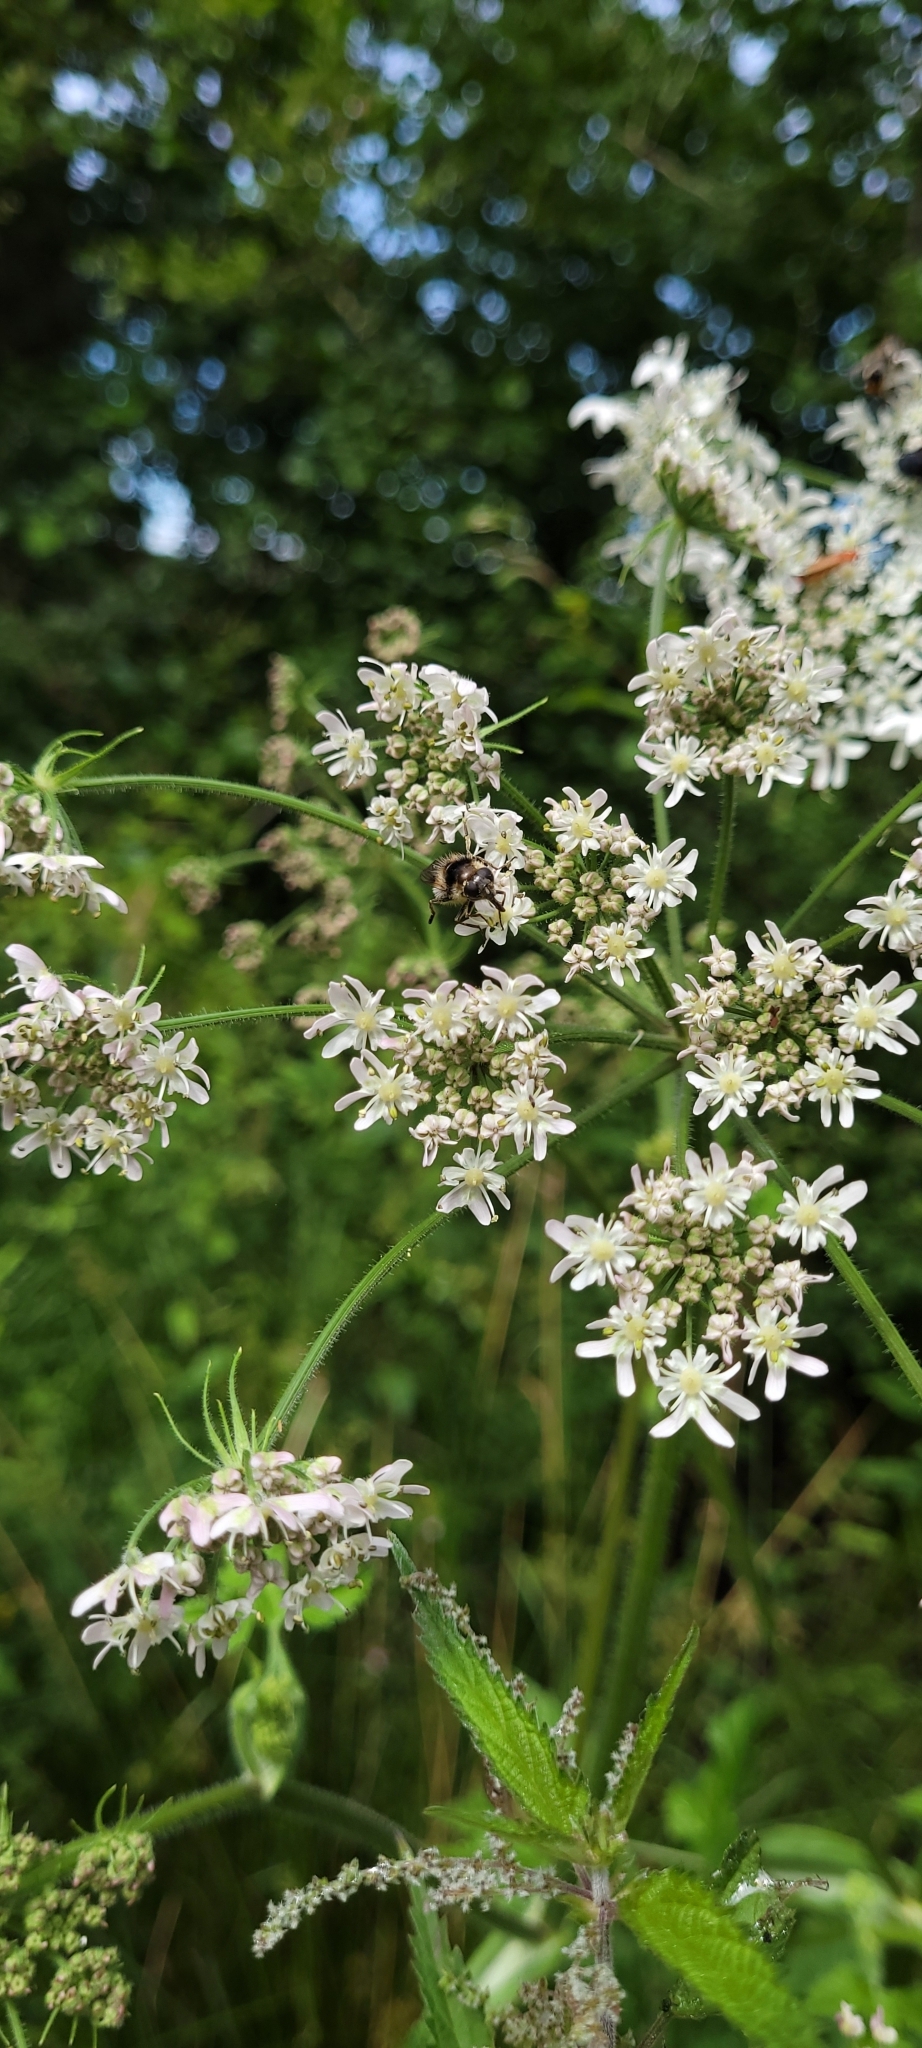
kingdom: Animalia
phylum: Arthropoda
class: Insecta
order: Diptera
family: Syrphidae
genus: Cheilosia
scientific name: Cheilosia illustrata
